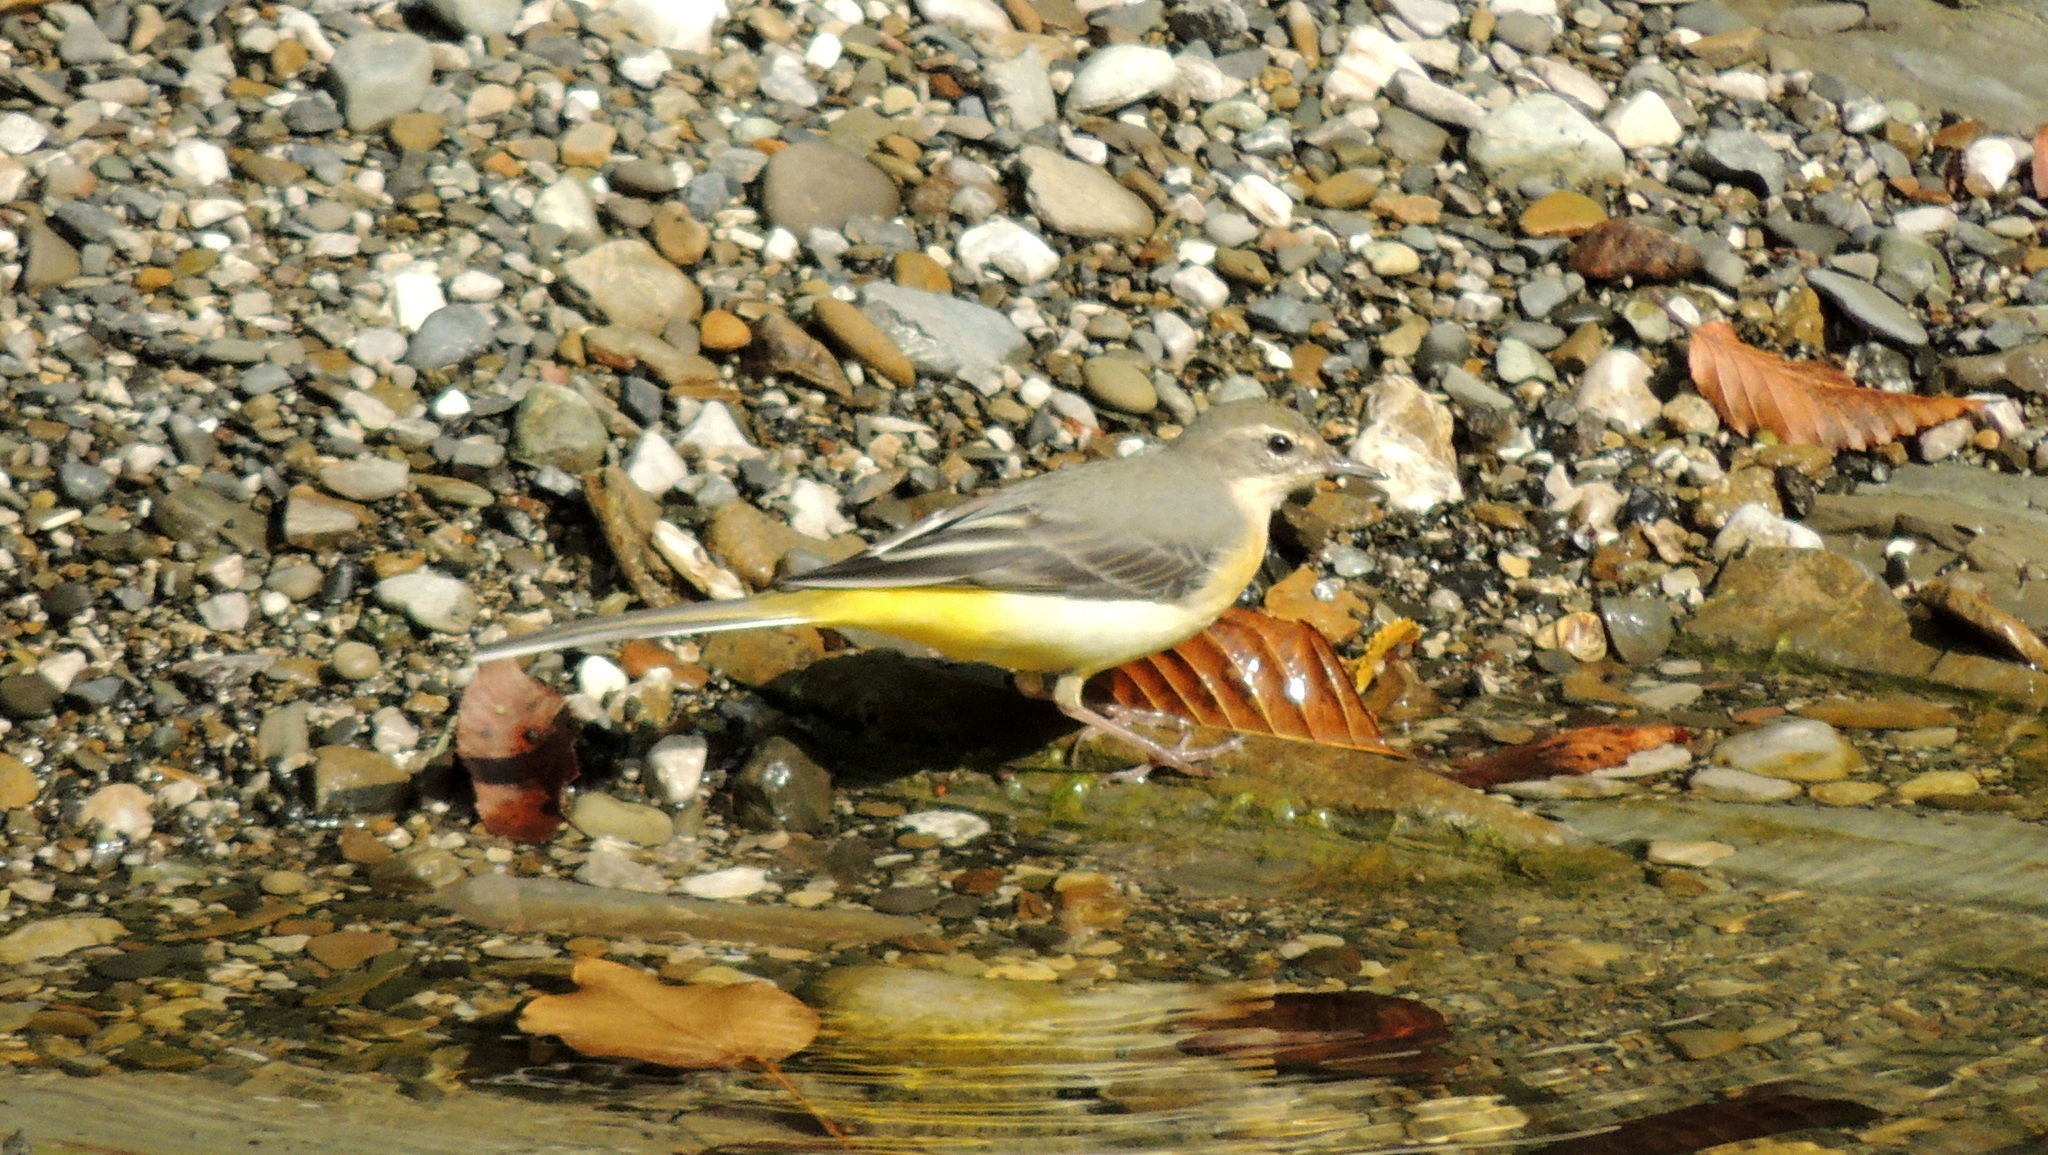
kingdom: Animalia
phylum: Chordata
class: Aves
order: Passeriformes
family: Motacillidae
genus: Motacilla
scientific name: Motacilla cinerea
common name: Grey wagtail
